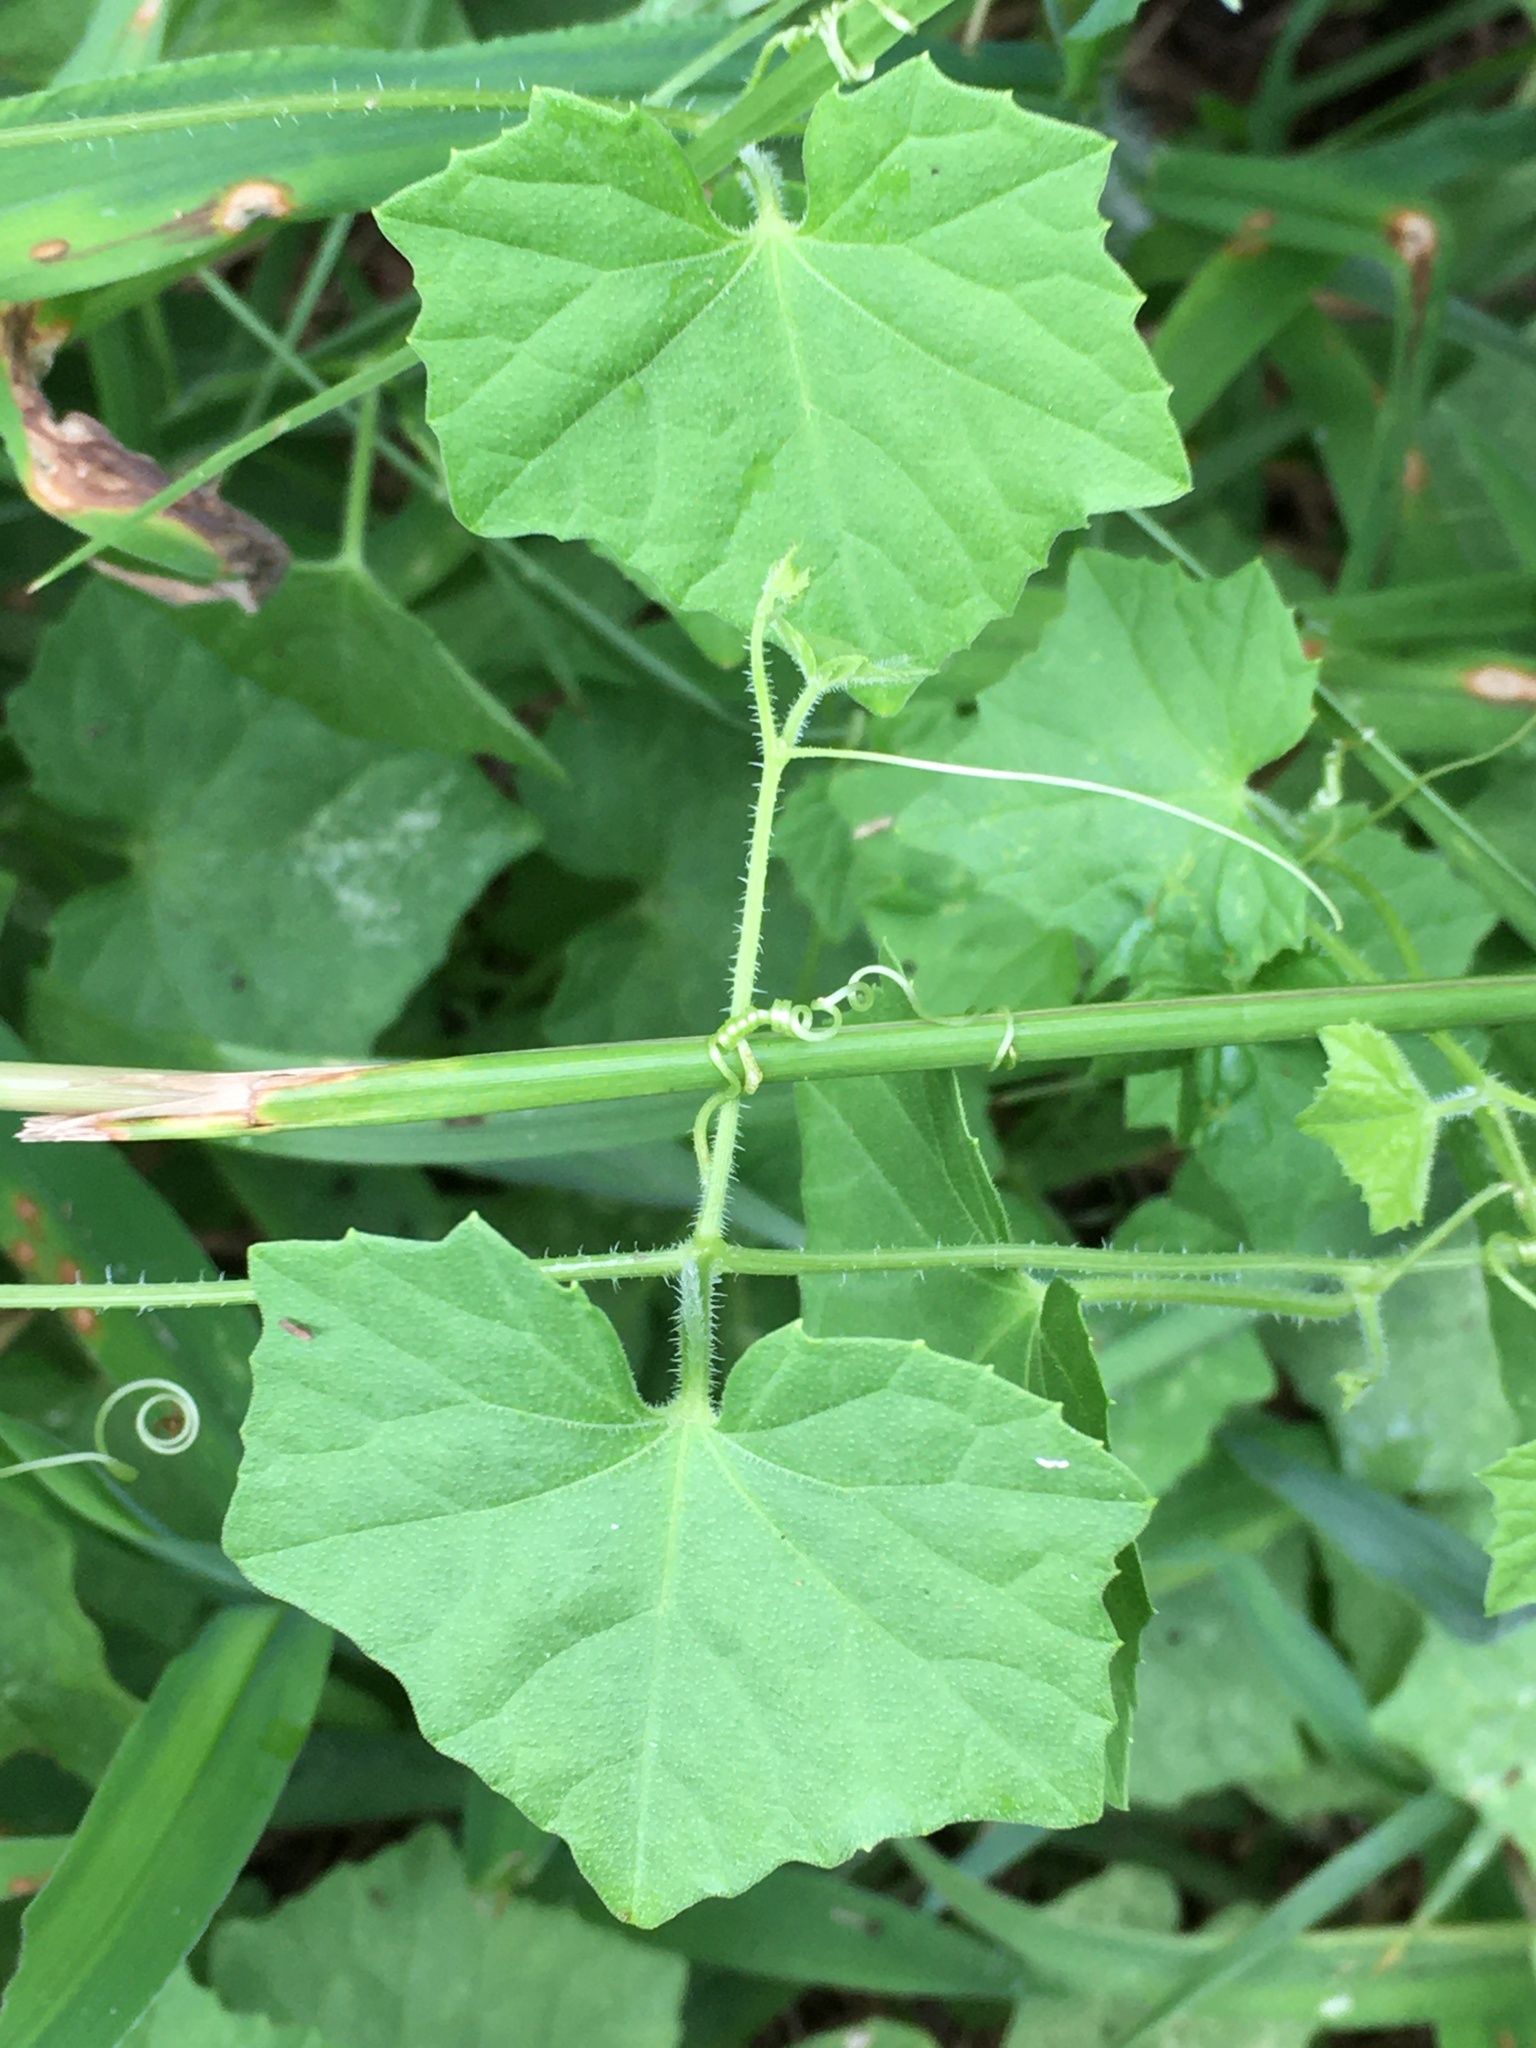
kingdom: Plantae
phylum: Tracheophyta
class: Magnoliopsida
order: Cucurbitales
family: Cucurbitaceae
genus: Melothria
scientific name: Melothria pendula
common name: Creeping-cucumber
